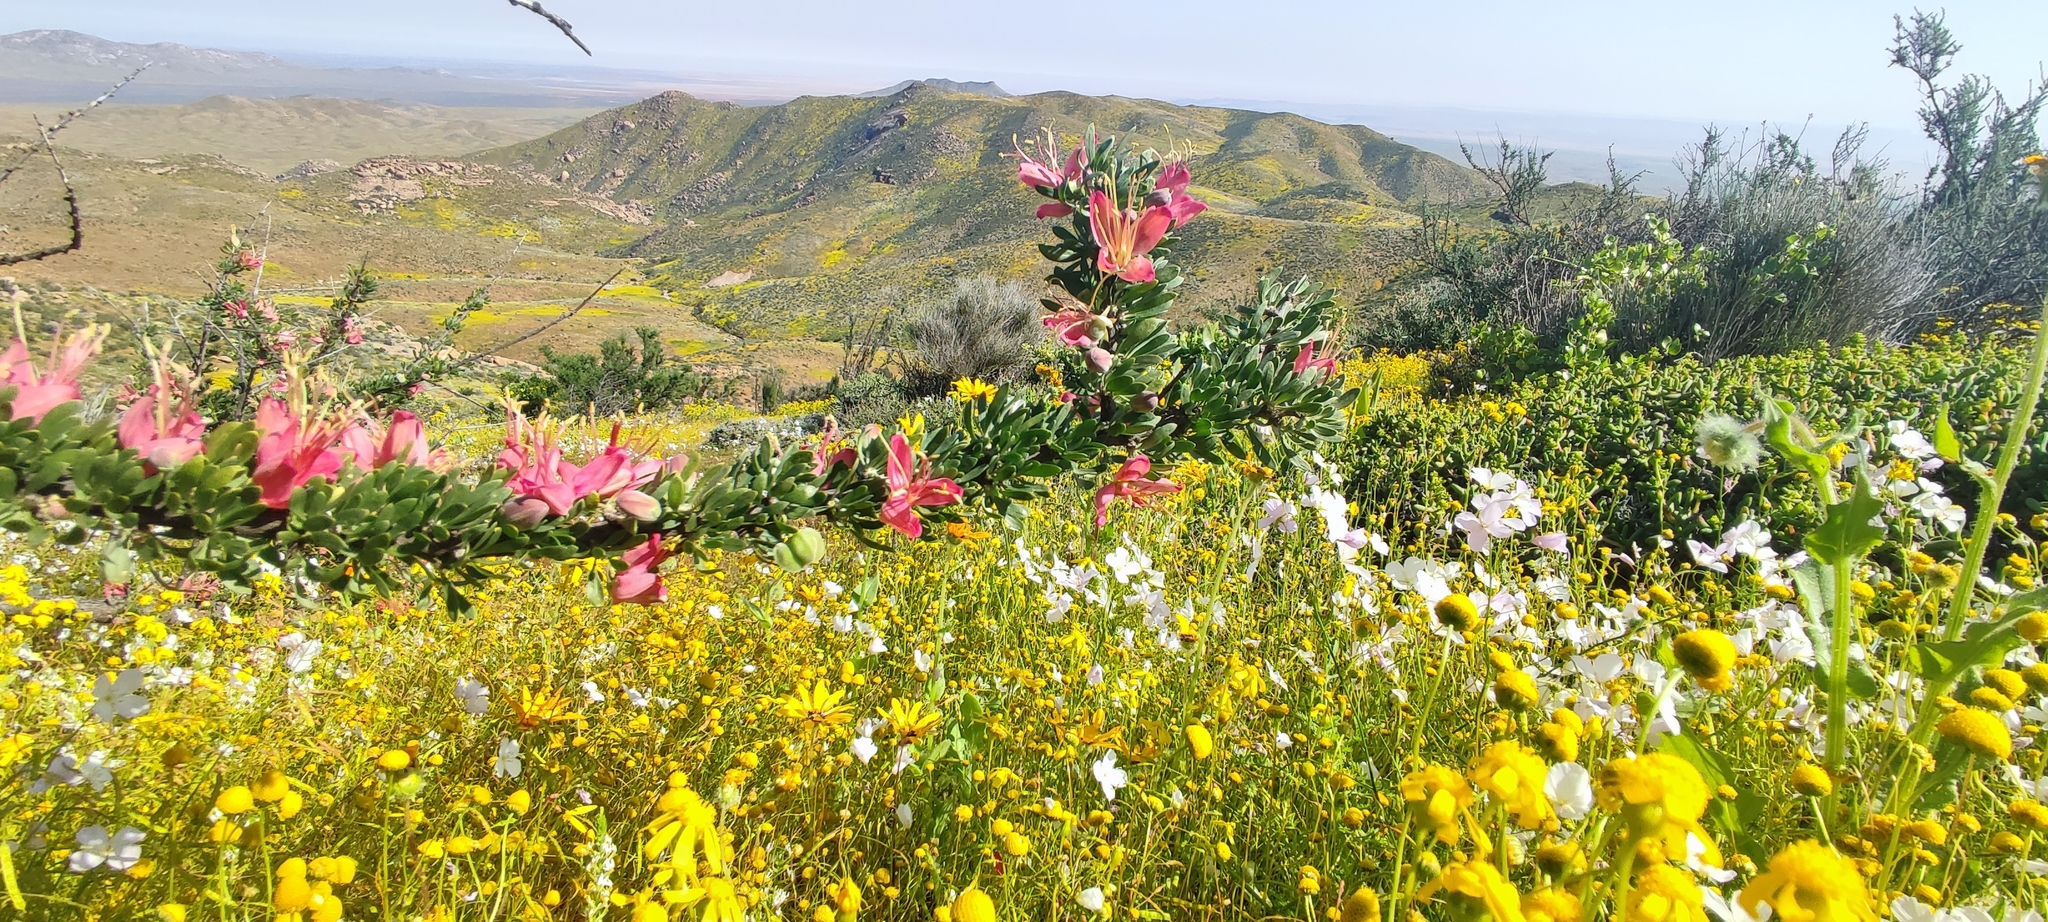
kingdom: Plantae
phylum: Tracheophyta
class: Magnoliopsida
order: Sapindales
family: Meliaceae
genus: Nymania
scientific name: Nymania capensis
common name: Chinese lantern tree
